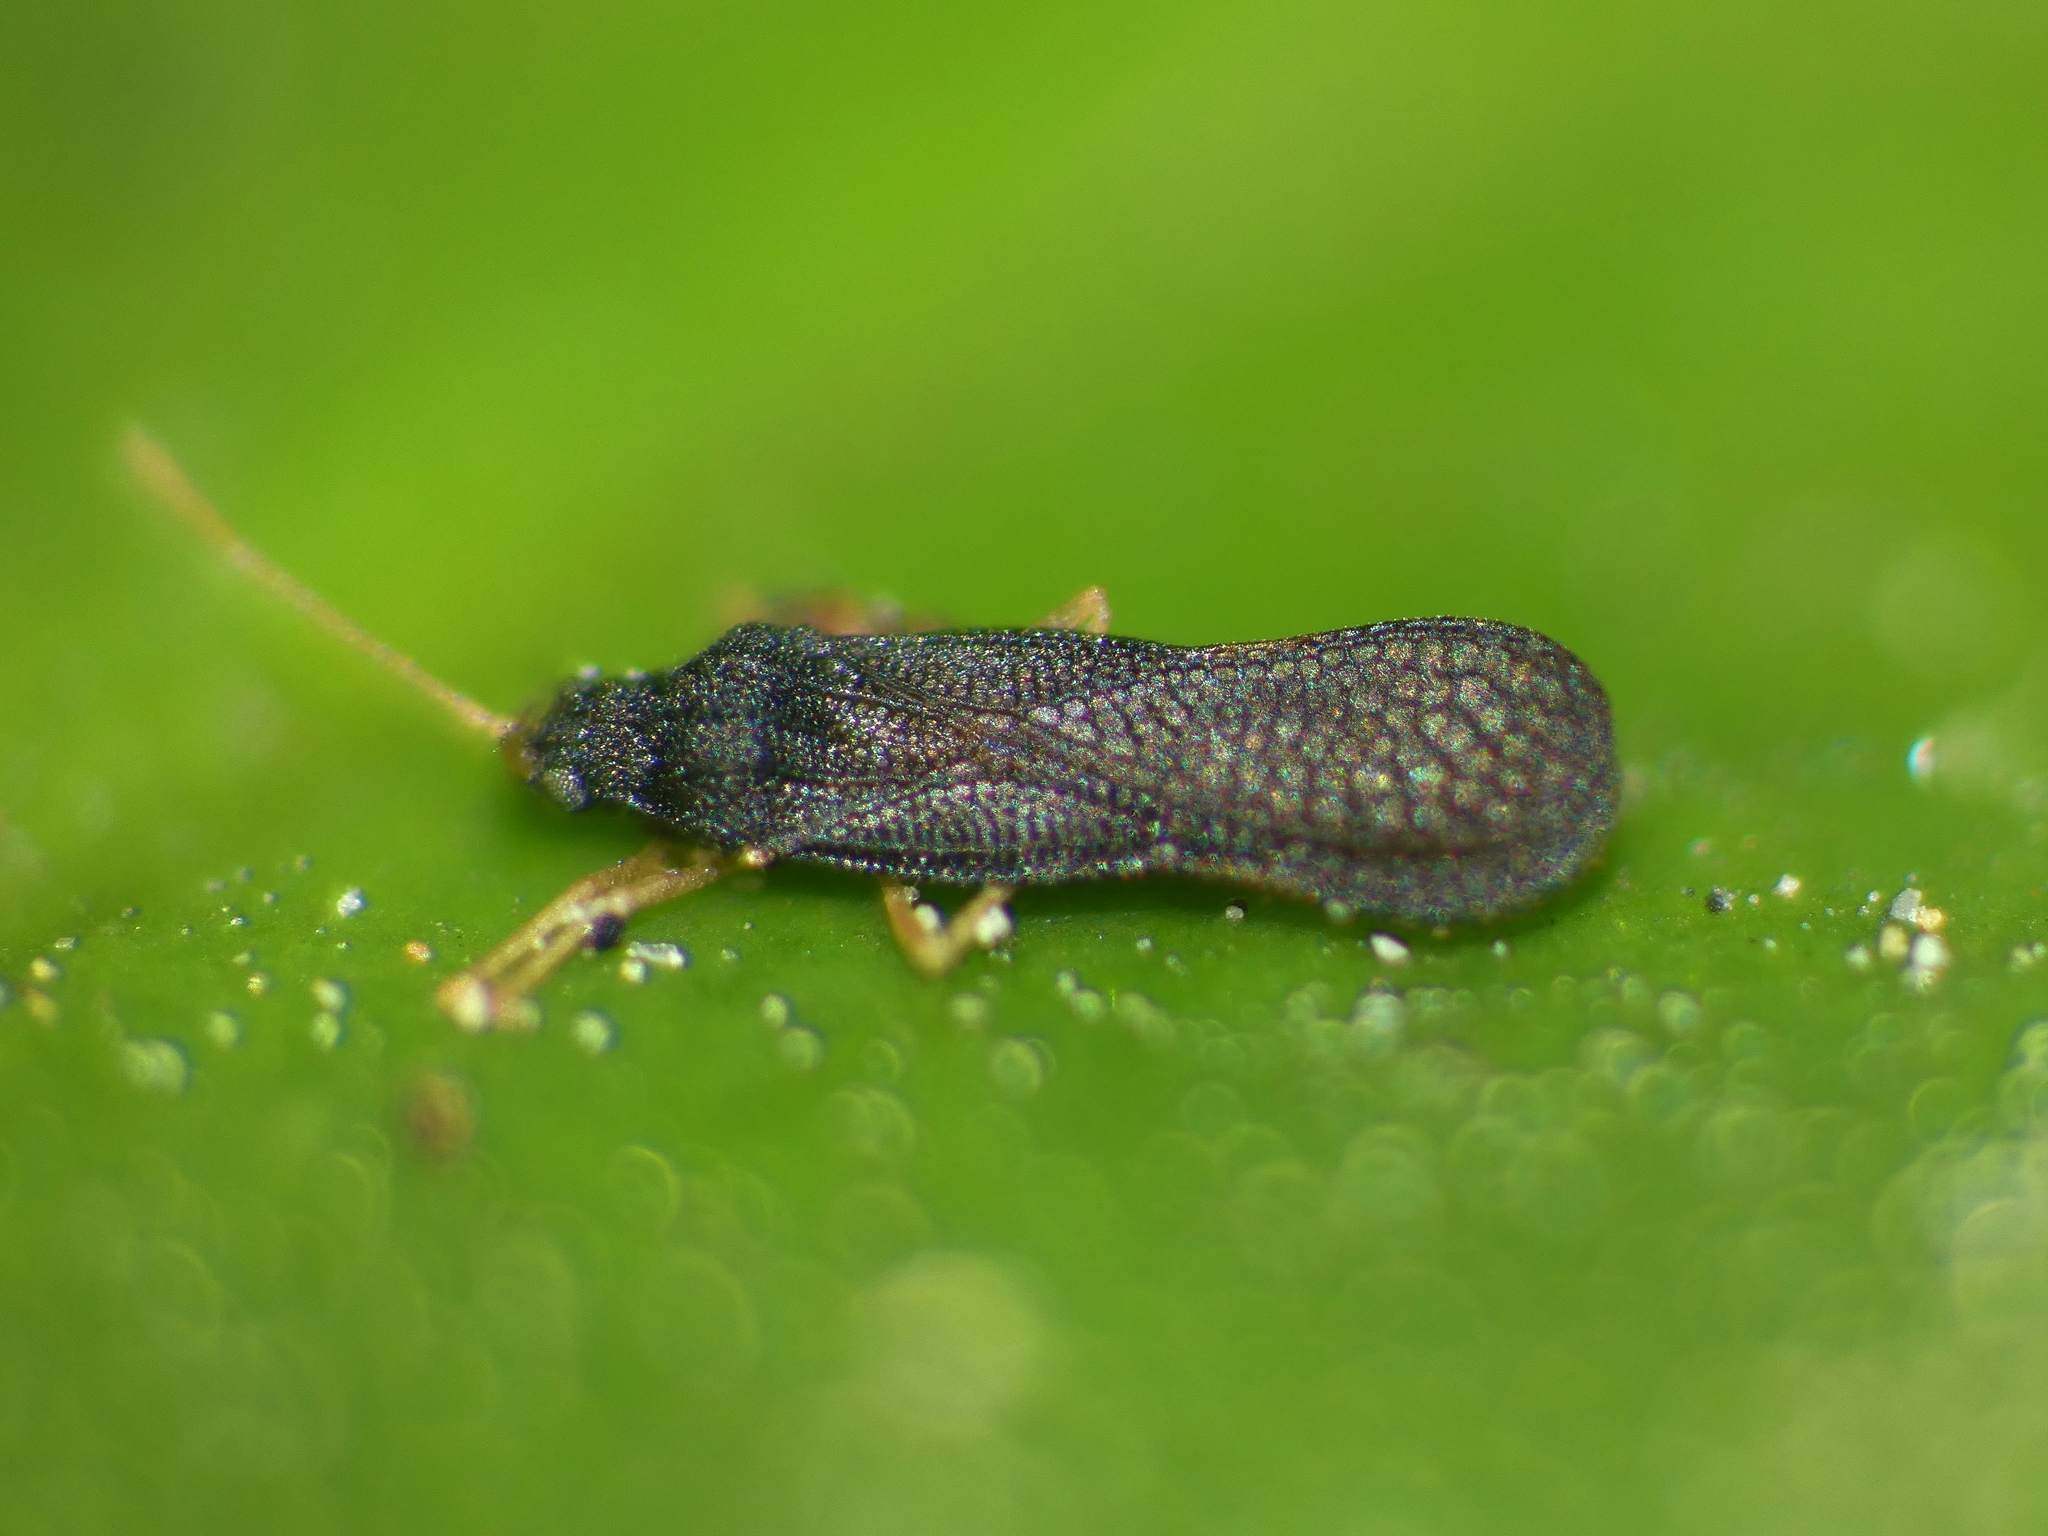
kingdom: Animalia
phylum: Arthropoda
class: Insecta
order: Hemiptera
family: Tingidae
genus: Larotingis
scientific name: Larotingis aporia
